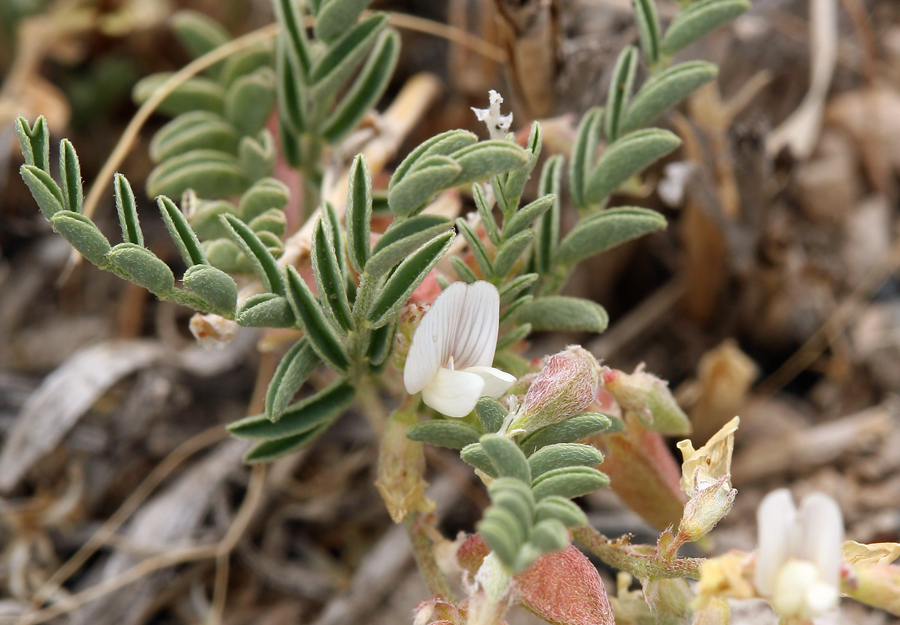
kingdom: Plantae
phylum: Tracheophyta
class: Magnoliopsida
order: Fabales
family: Fabaceae
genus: Astragalus
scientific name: Astragalus johannis-howellii
